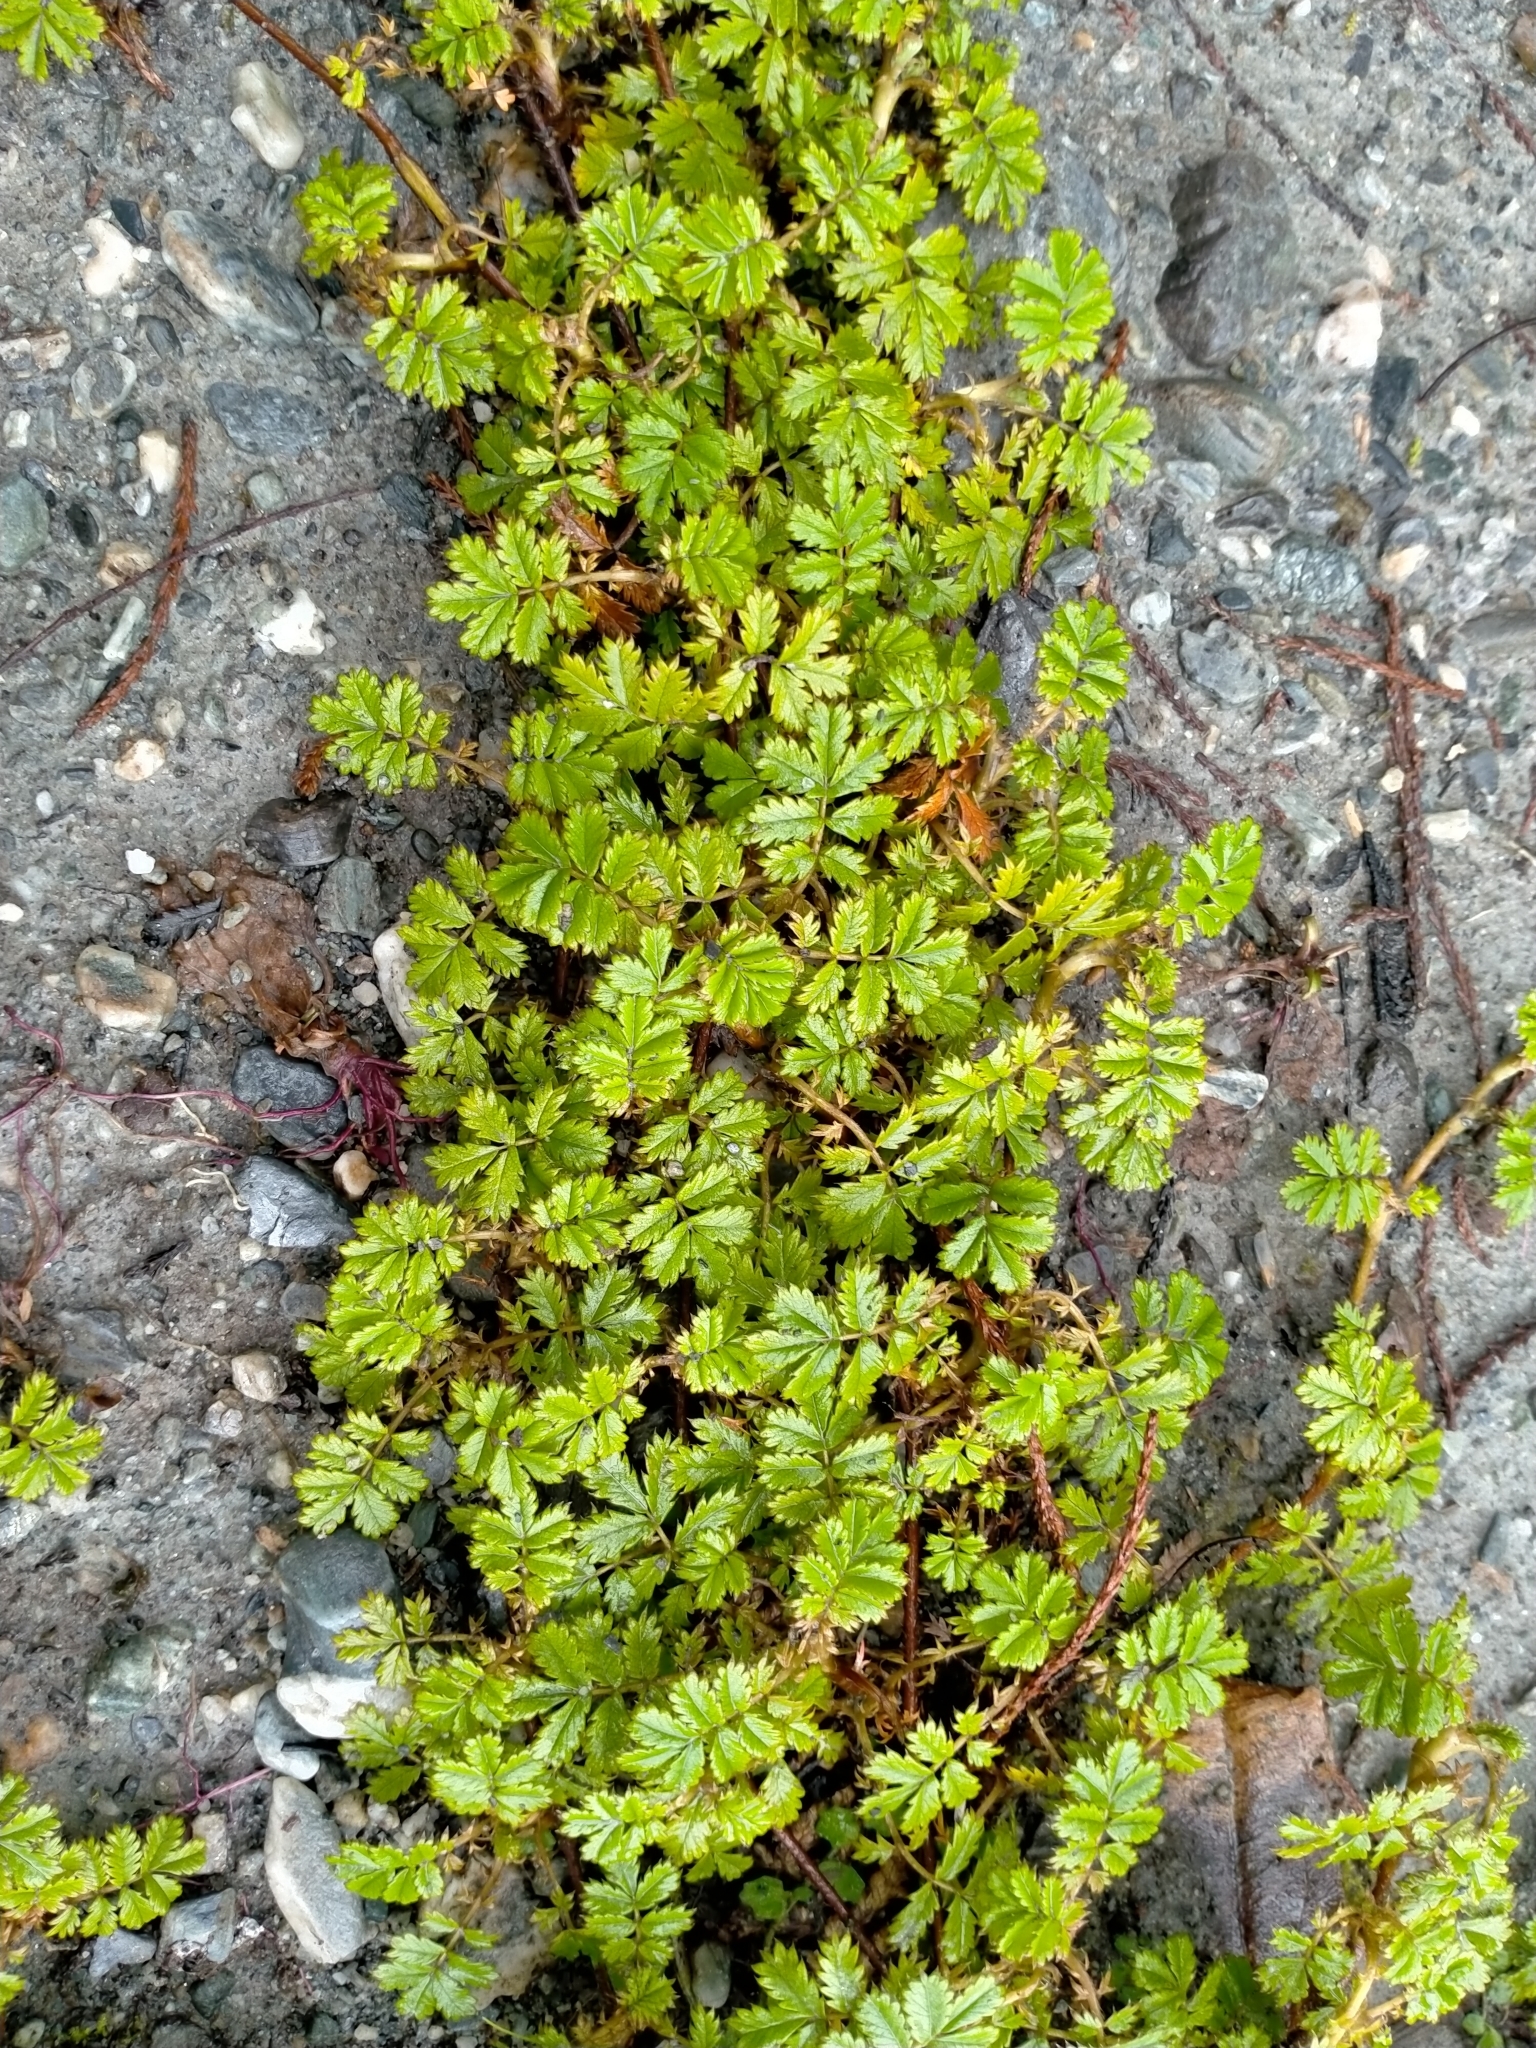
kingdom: Plantae
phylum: Tracheophyta
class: Magnoliopsida
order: Rosales
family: Rosaceae
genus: Acaena
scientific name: Acaena anserinifolia
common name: Bronze pirri-pirri-bur
